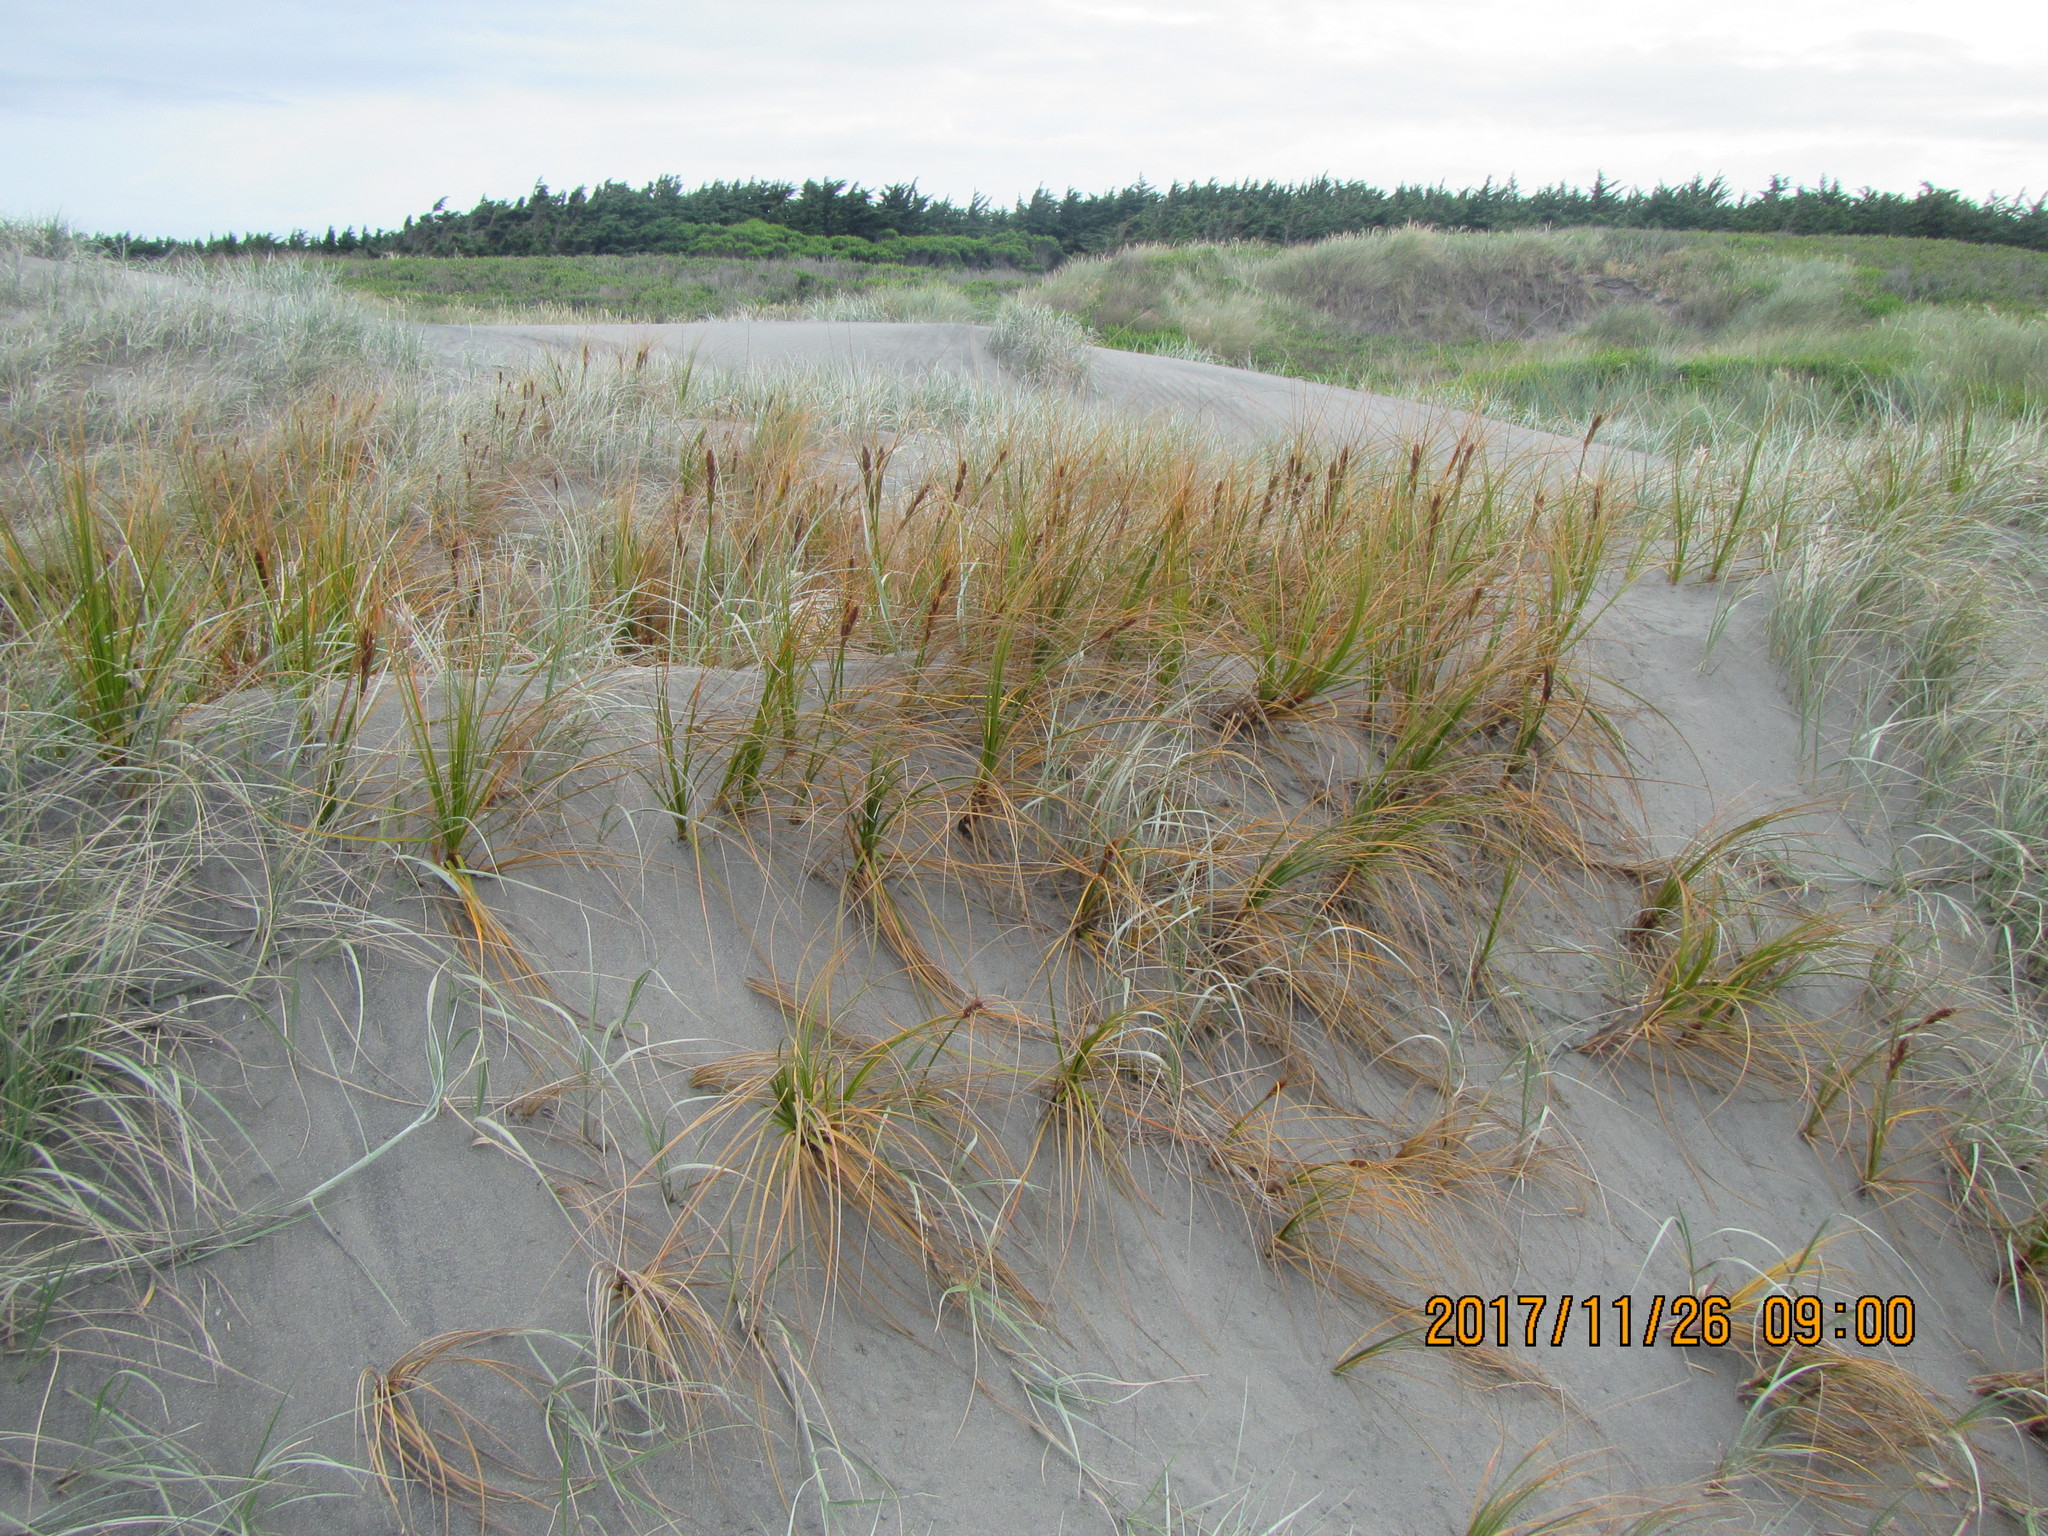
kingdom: Plantae
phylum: Tracheophyta
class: Liliopsida
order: Poales
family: Cyperaceae
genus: Ficinia
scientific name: Ficinia spiralis
